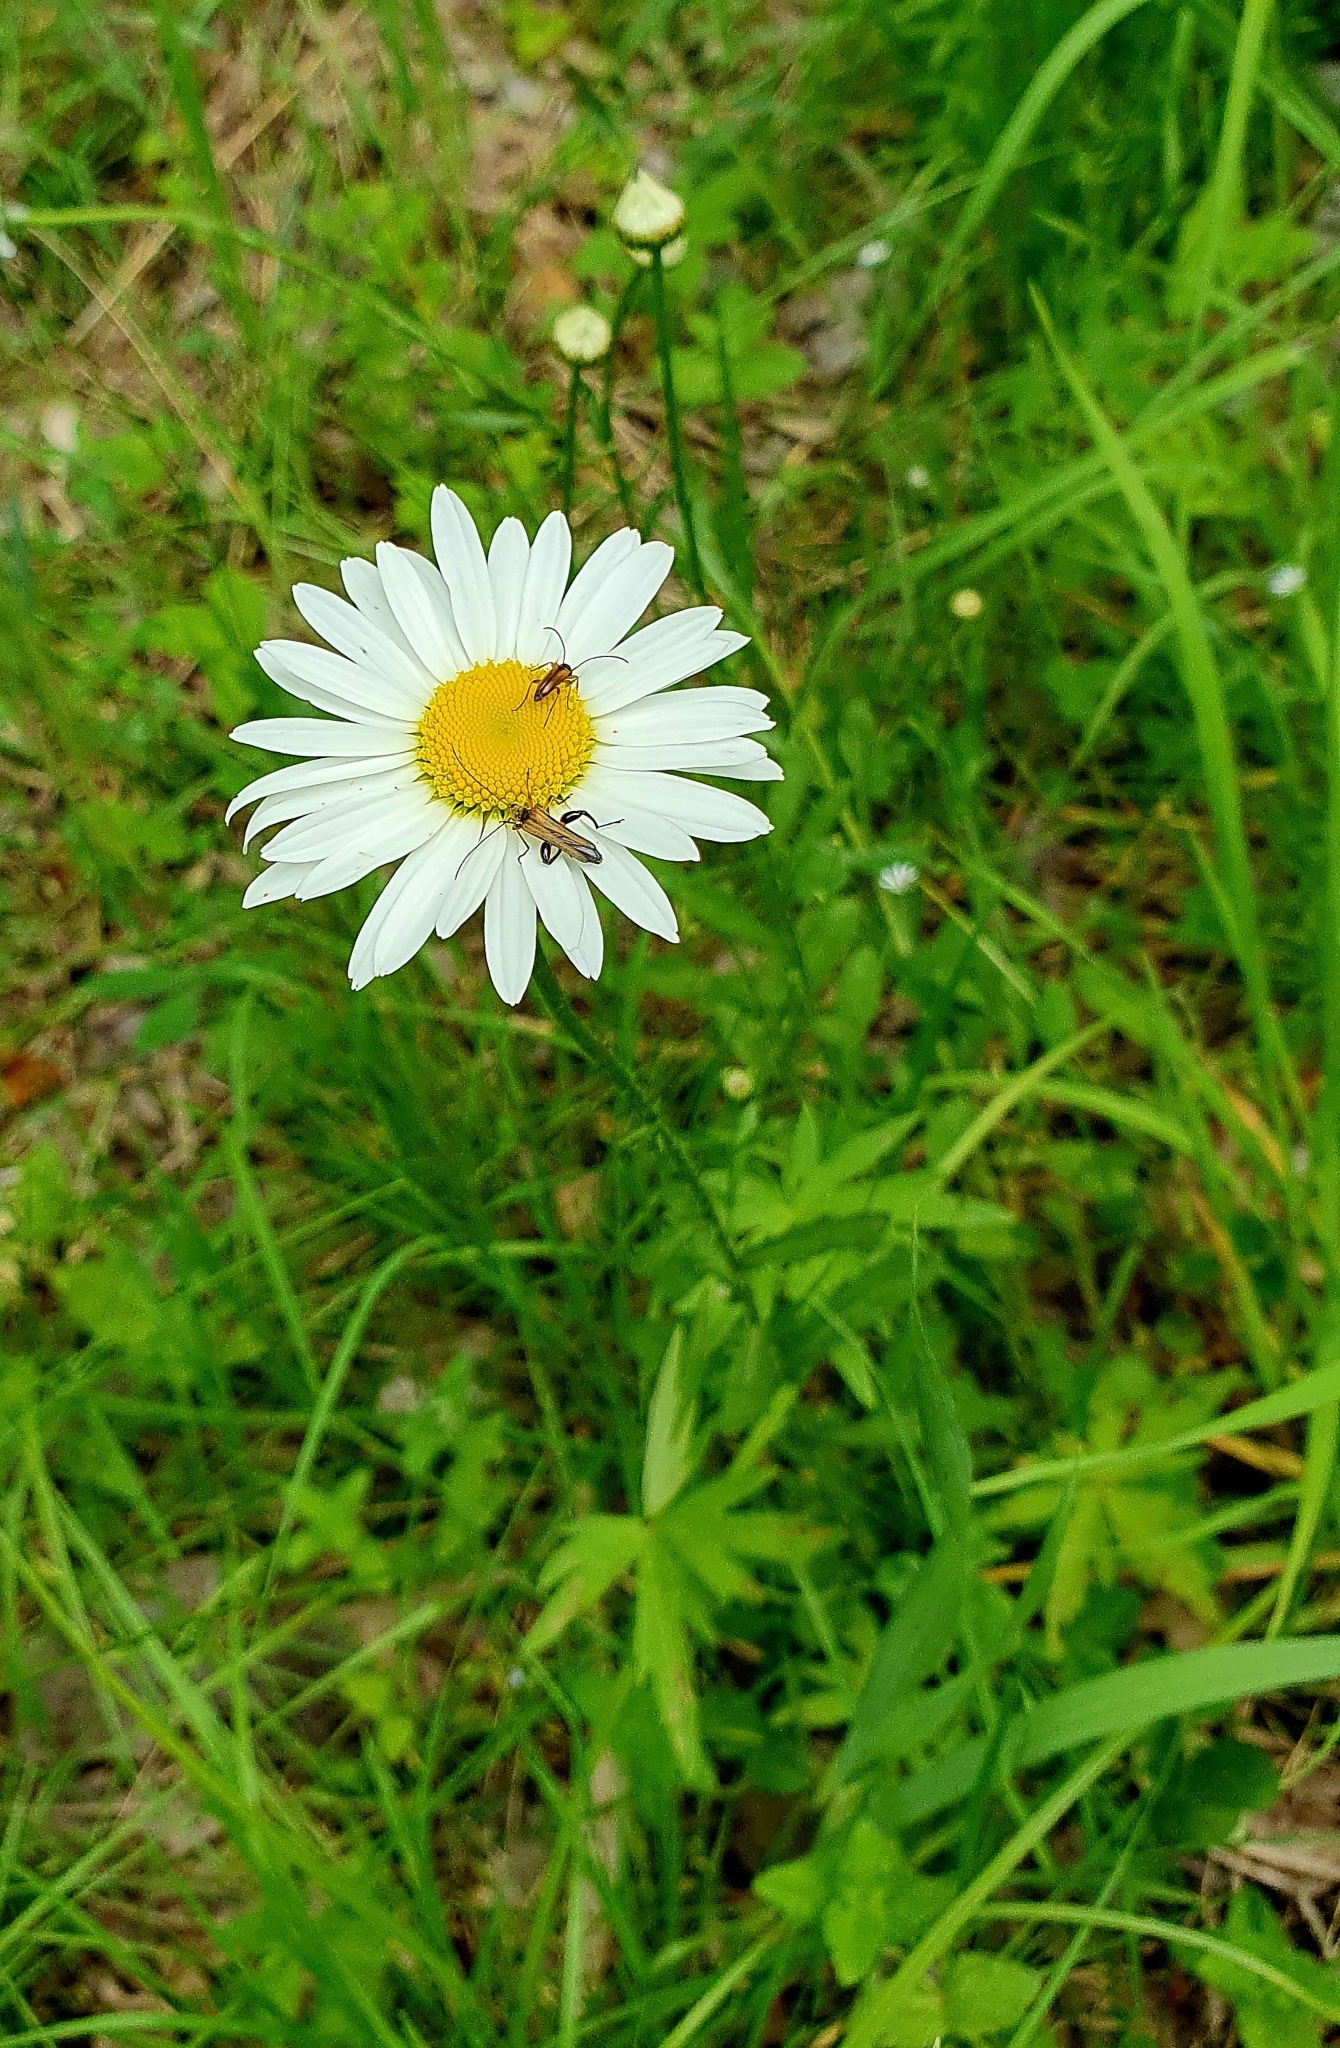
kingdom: Plantae
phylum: Tracheophyta
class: Magnoliopsida
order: Asterales
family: Asteraceae
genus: Leucanthemum
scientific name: Leucanthemum vulgare
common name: Oxeye daisy
